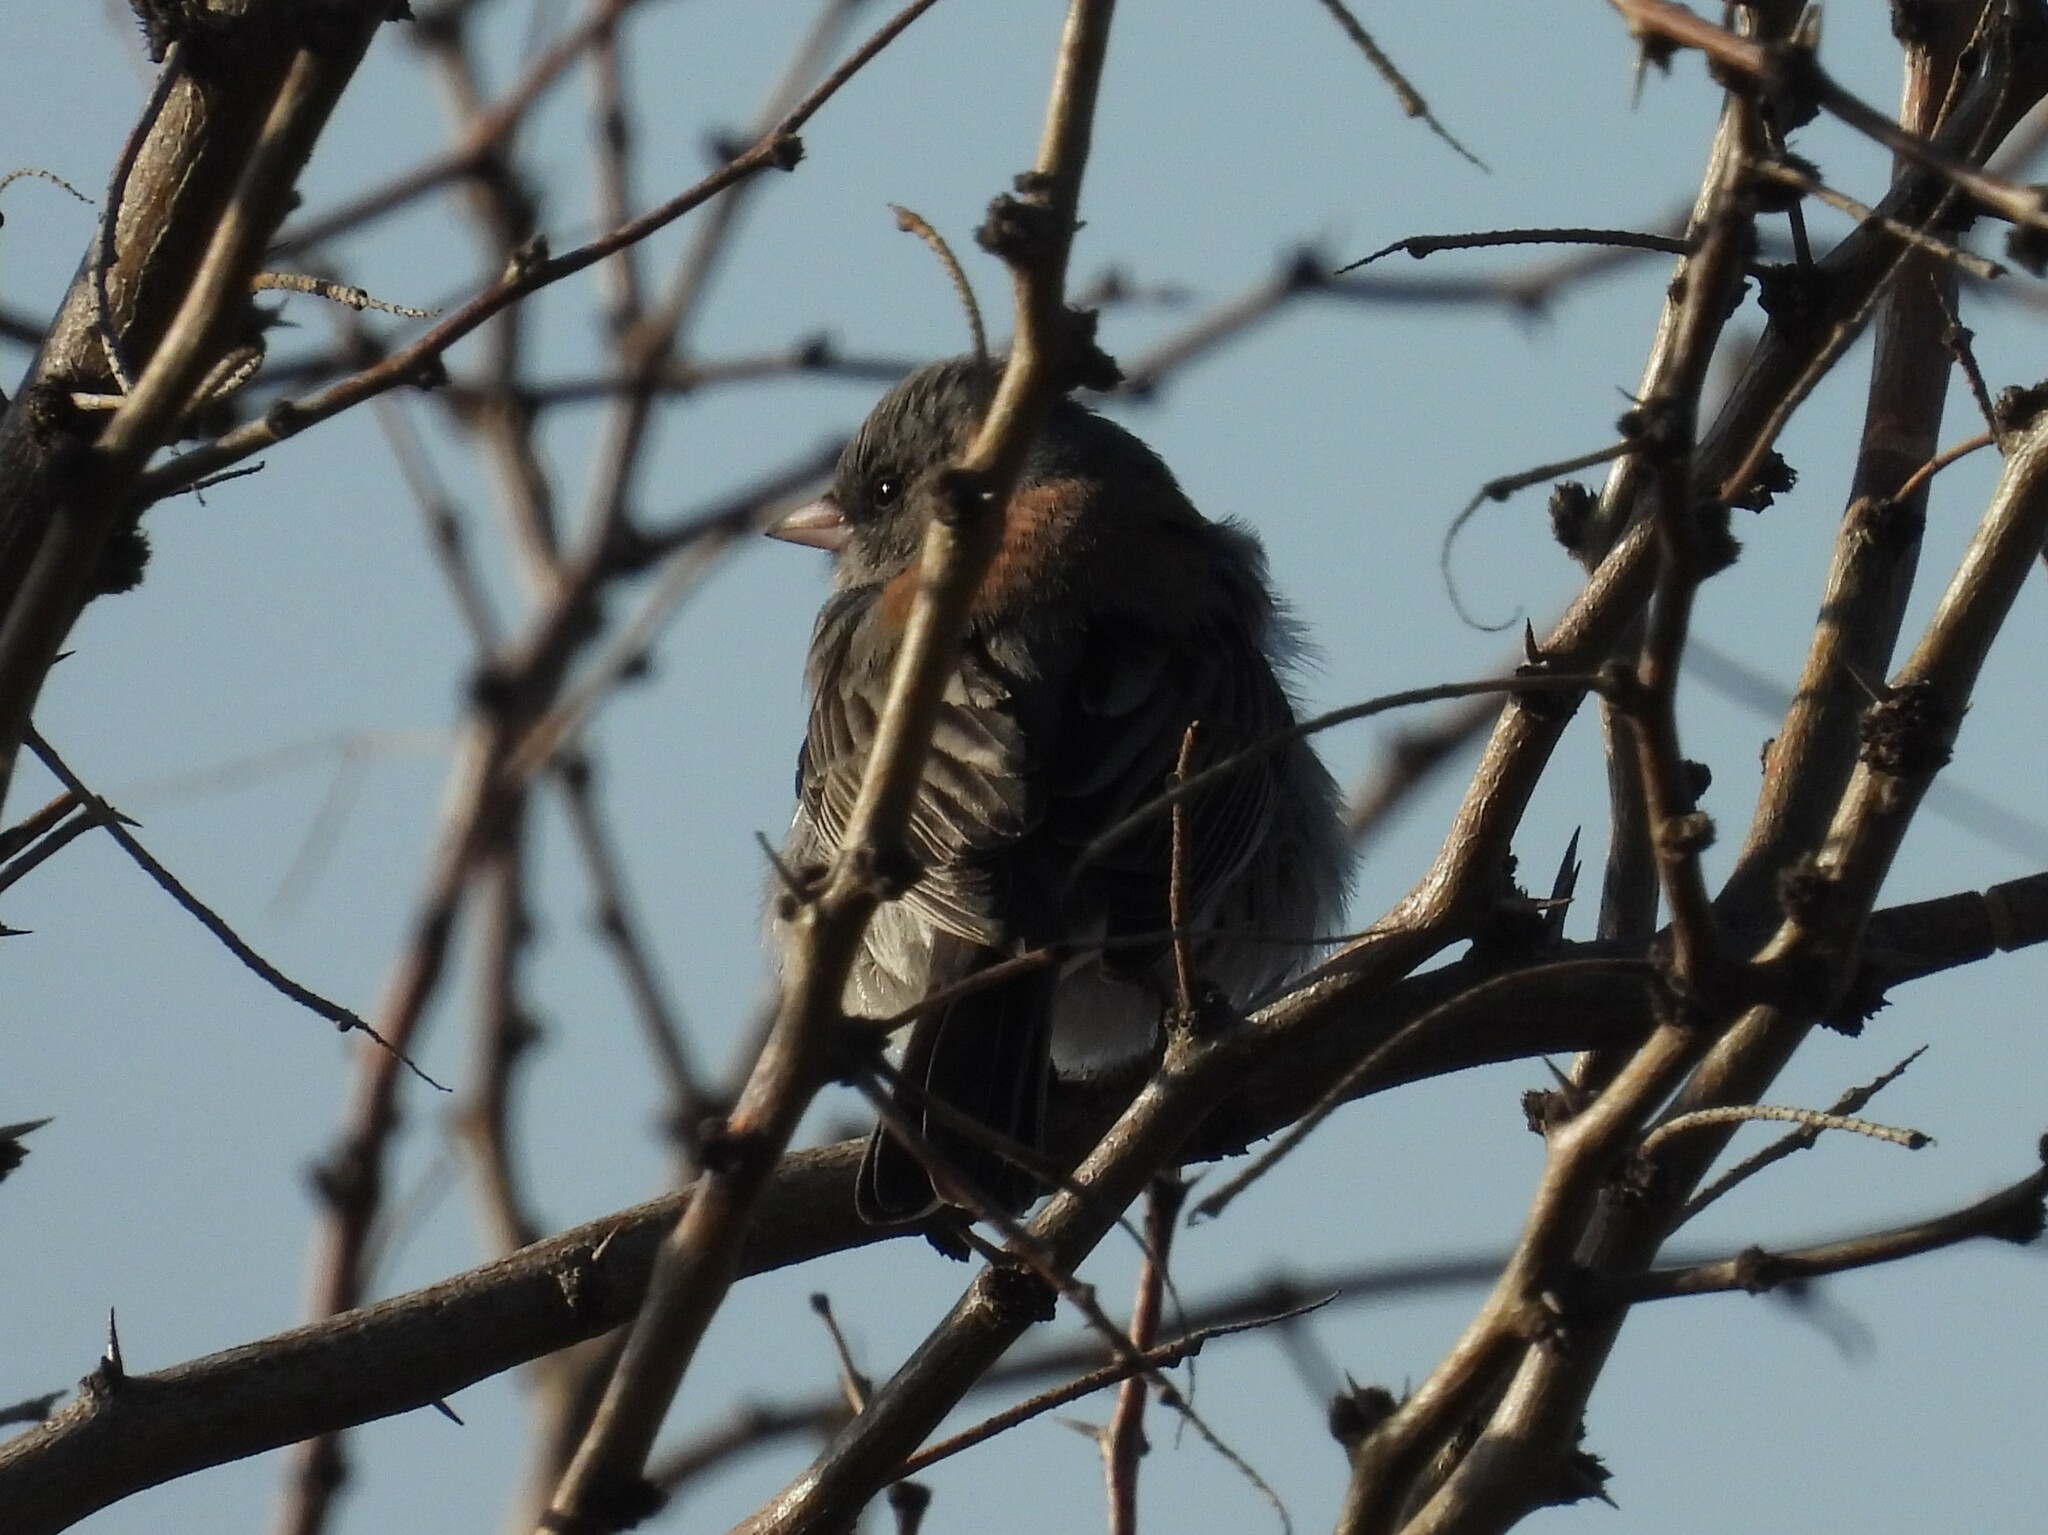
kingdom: Animalia
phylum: Chordata
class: Aves
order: Passeriformes
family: Passerellidae
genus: Junco
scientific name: Junco hyemalis
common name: Dark-eyed junco
